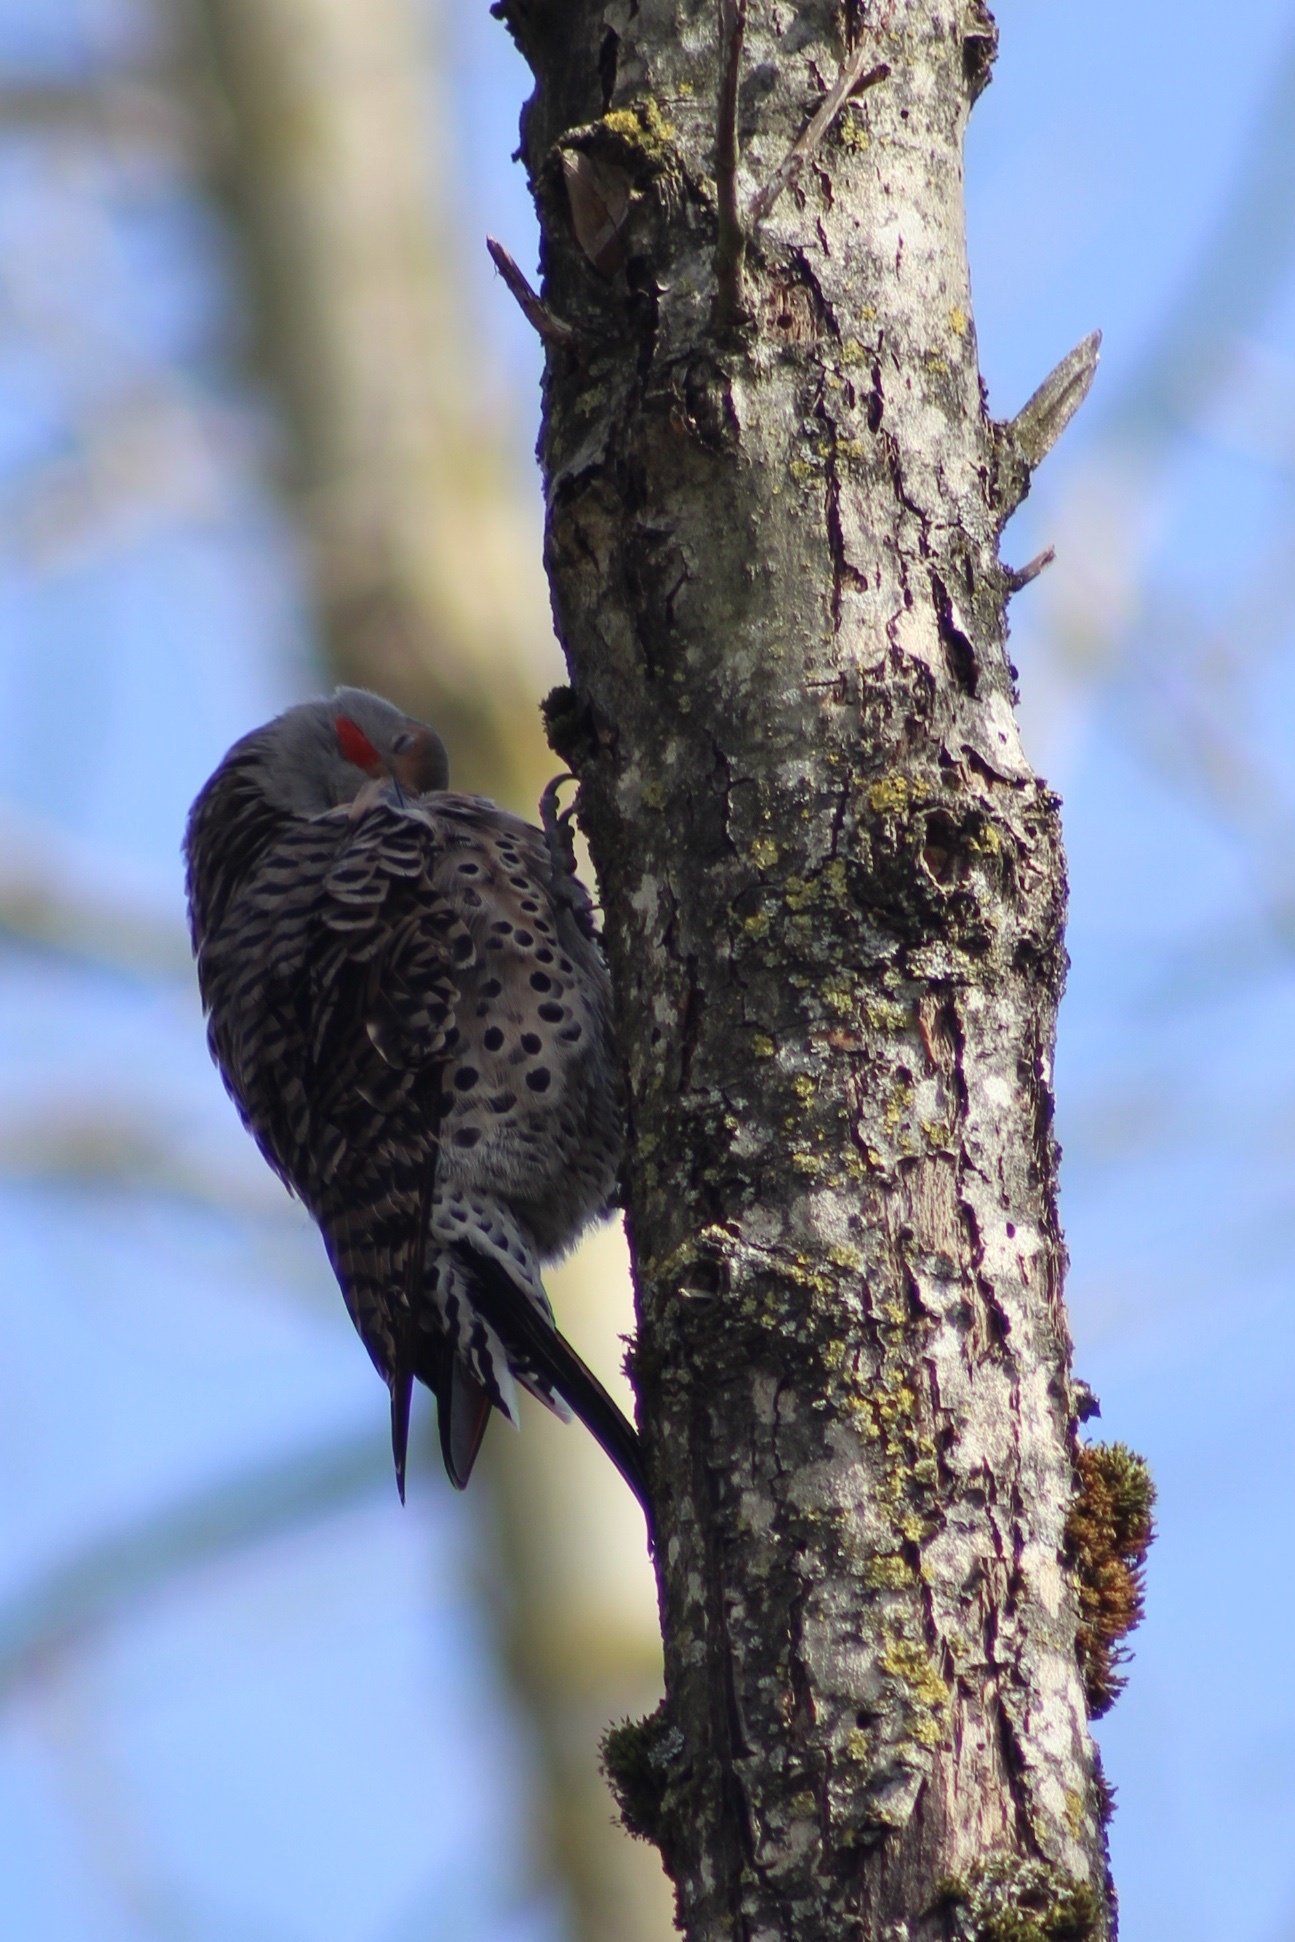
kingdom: Animalia
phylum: Chordata
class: Aves
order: Piciformes
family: Picidae
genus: Colaptes
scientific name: Colaptes auratus
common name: Northern flicker
